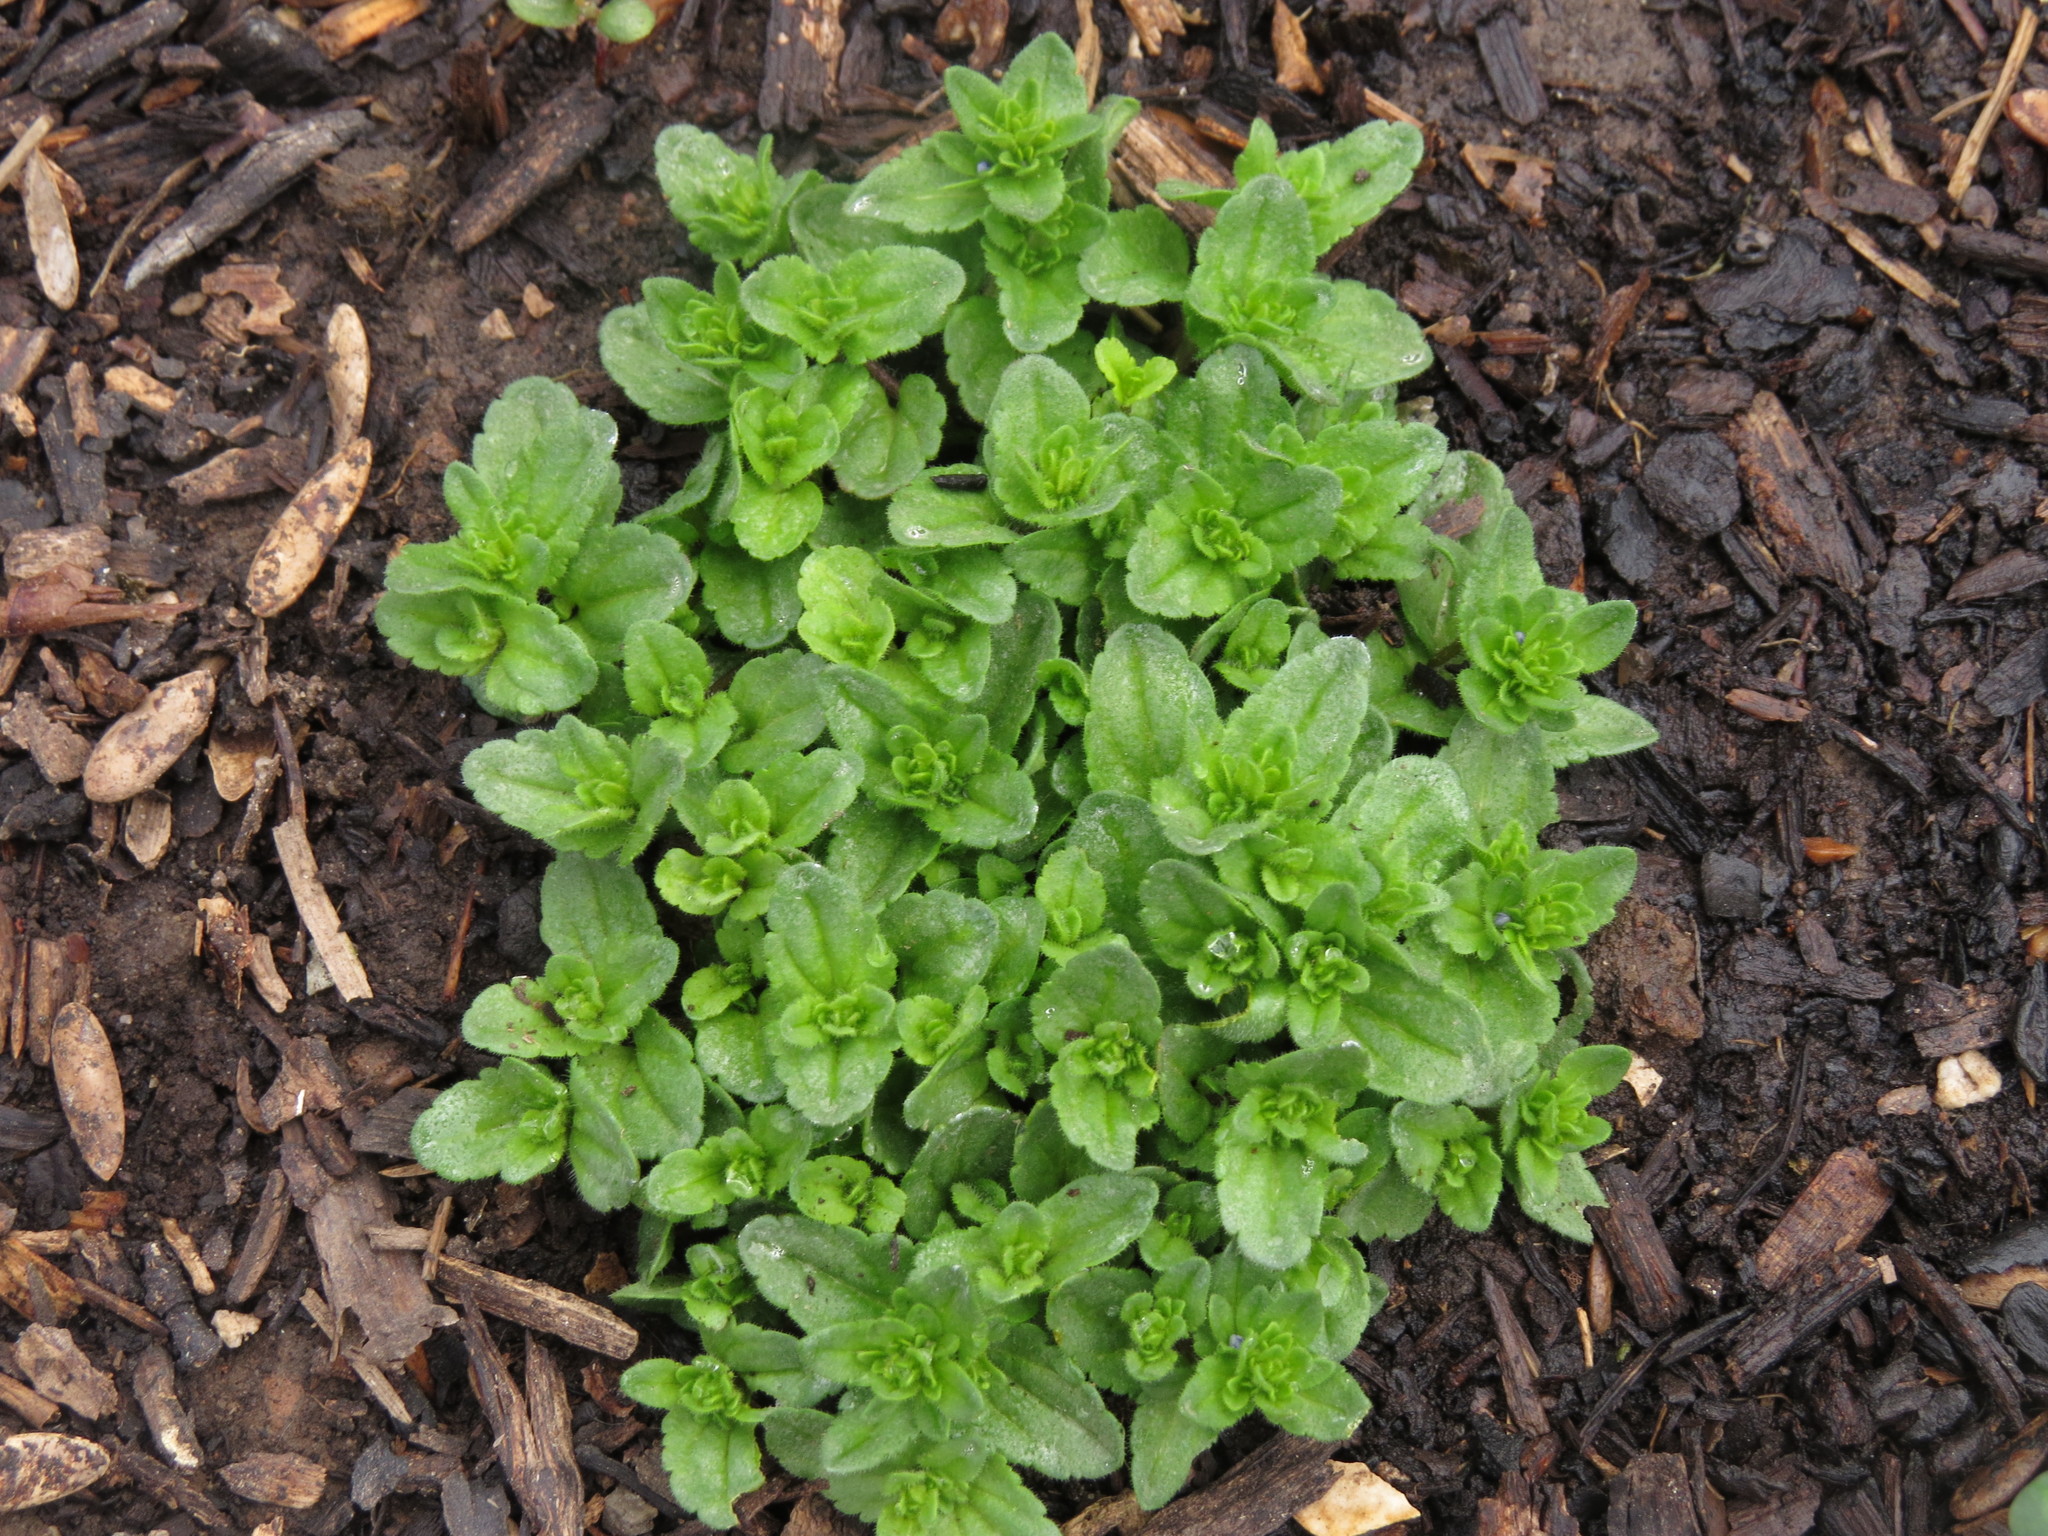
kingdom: Plantae
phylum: Tracheophyta
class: Magnoliopsida
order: Lamiales
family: Plantaginaceae
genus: Veronica
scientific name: Veronica arvensis
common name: Corn speedwell
